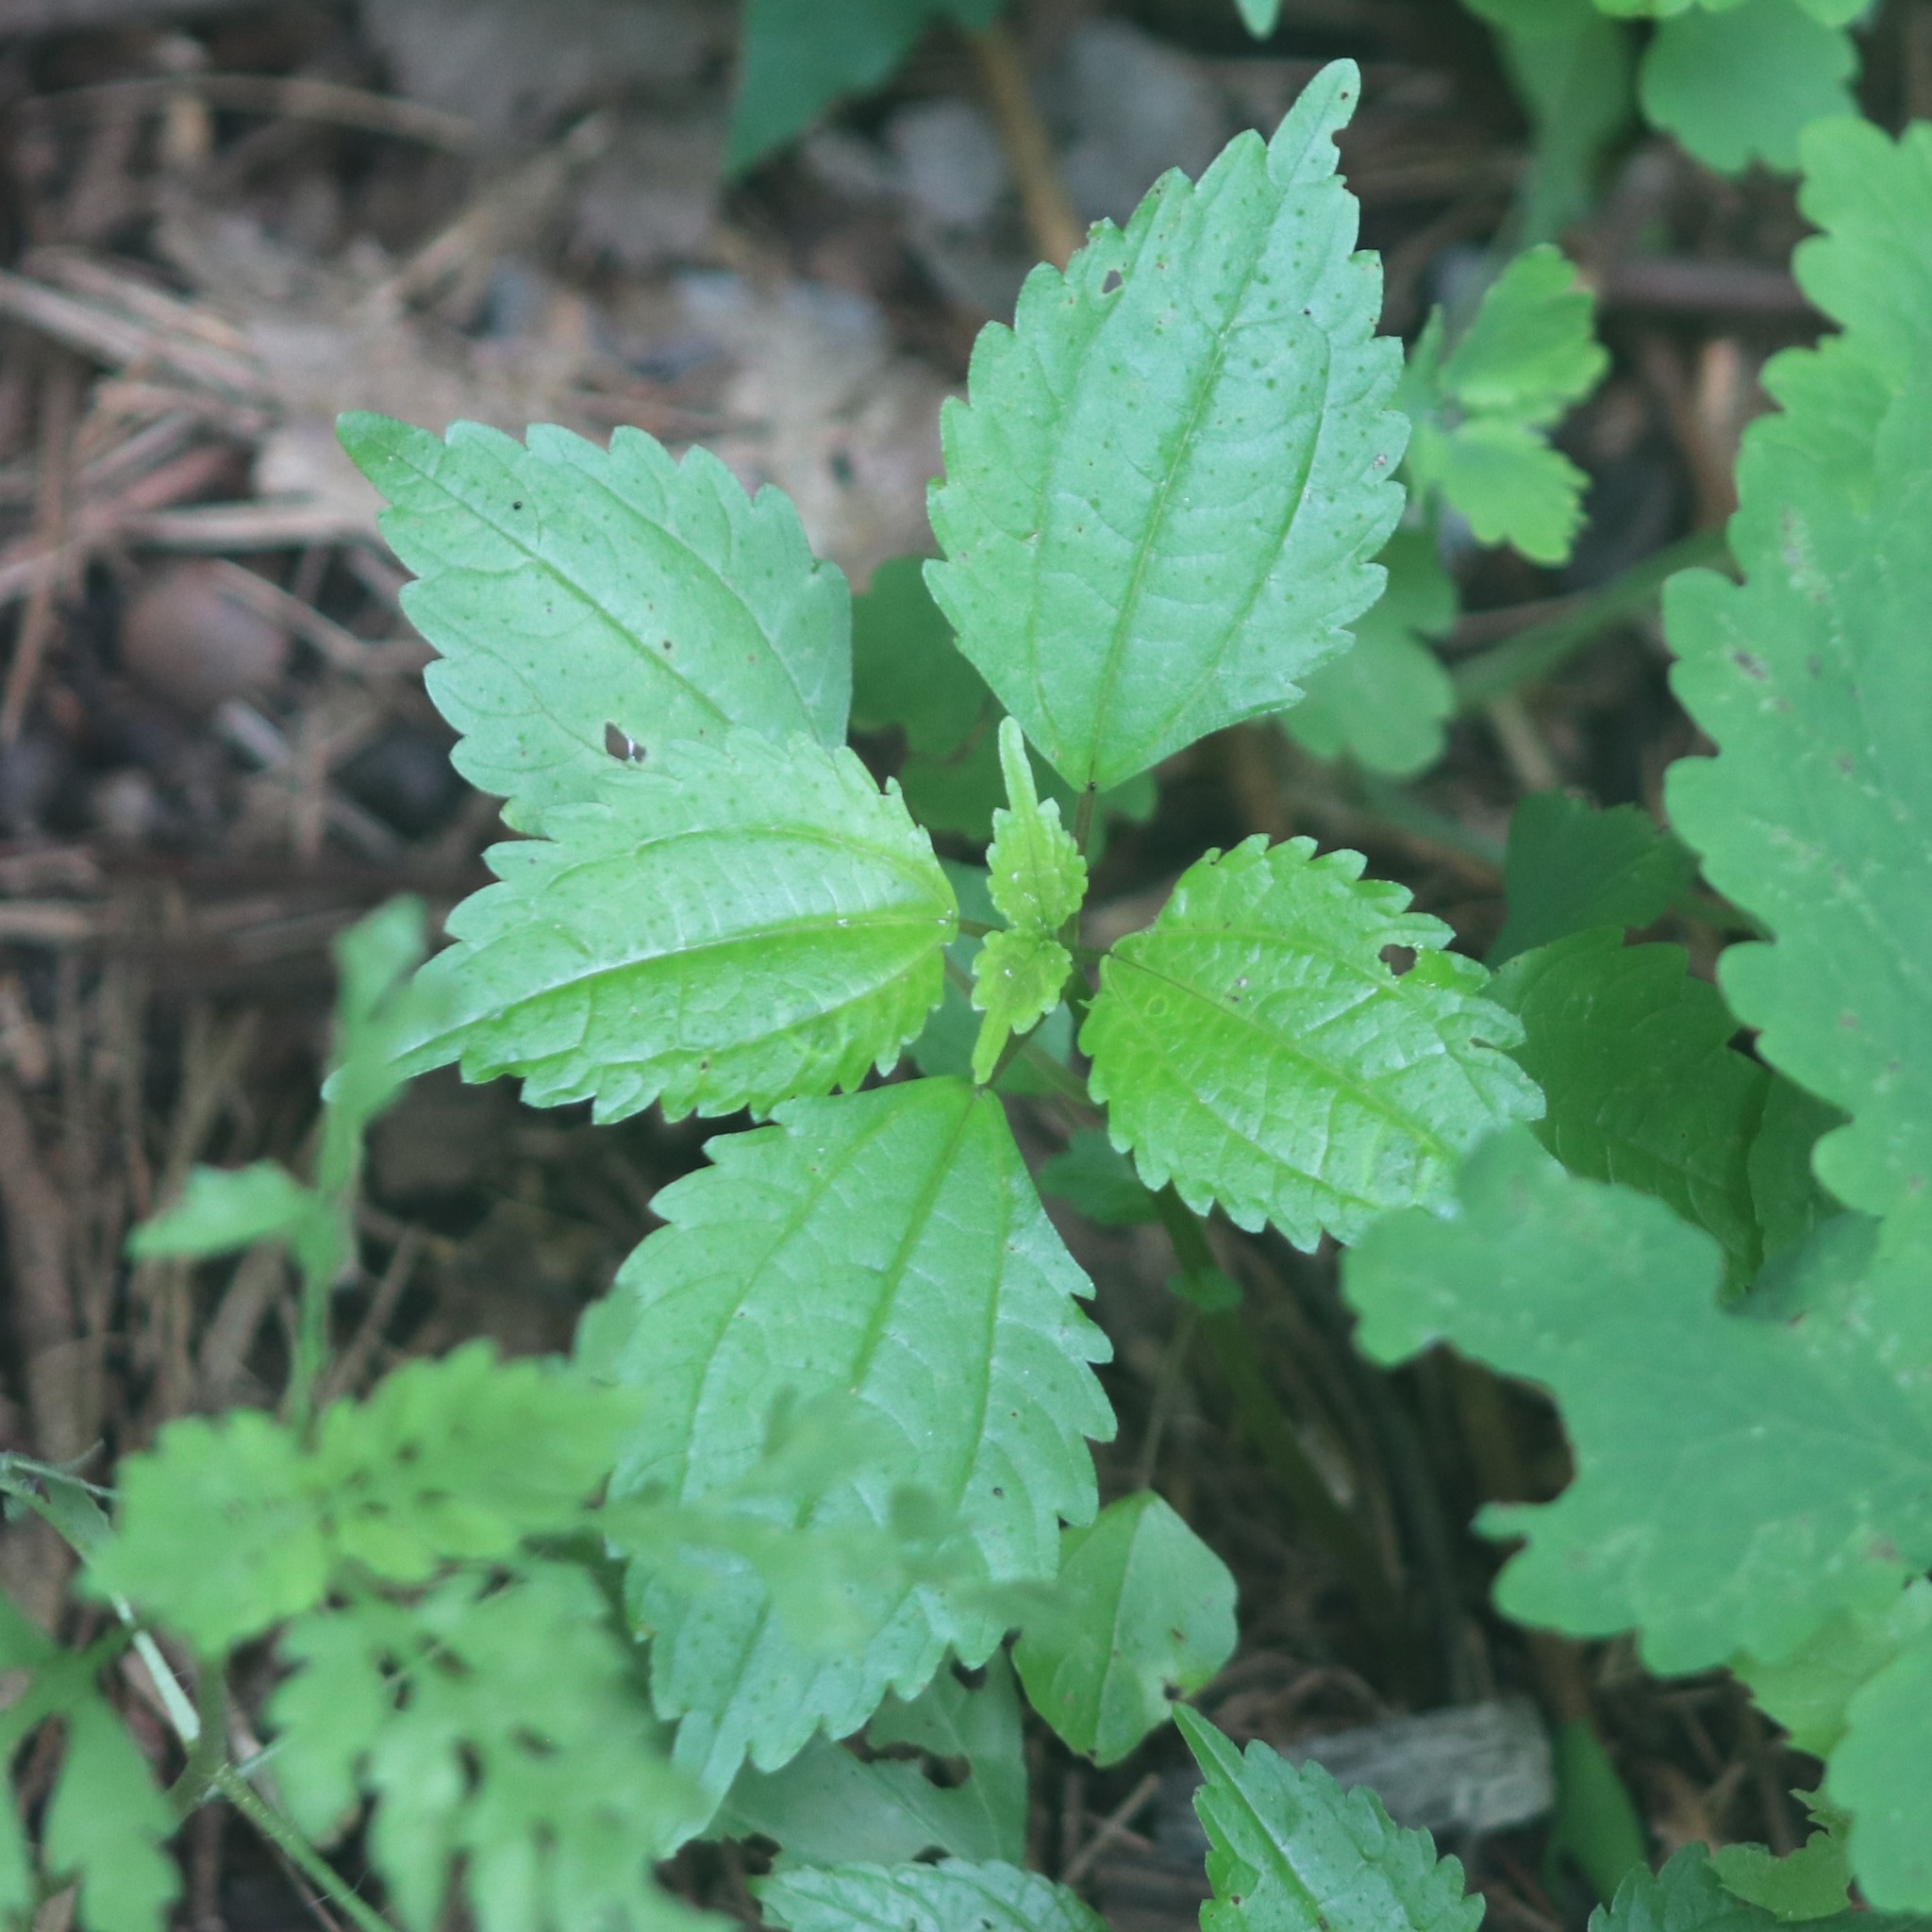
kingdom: Plantae
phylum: Tracheophyta
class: Magnoliopsida
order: Rosales
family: Urticaceae
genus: Pilea
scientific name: Pilea pumila
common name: Clearweed
